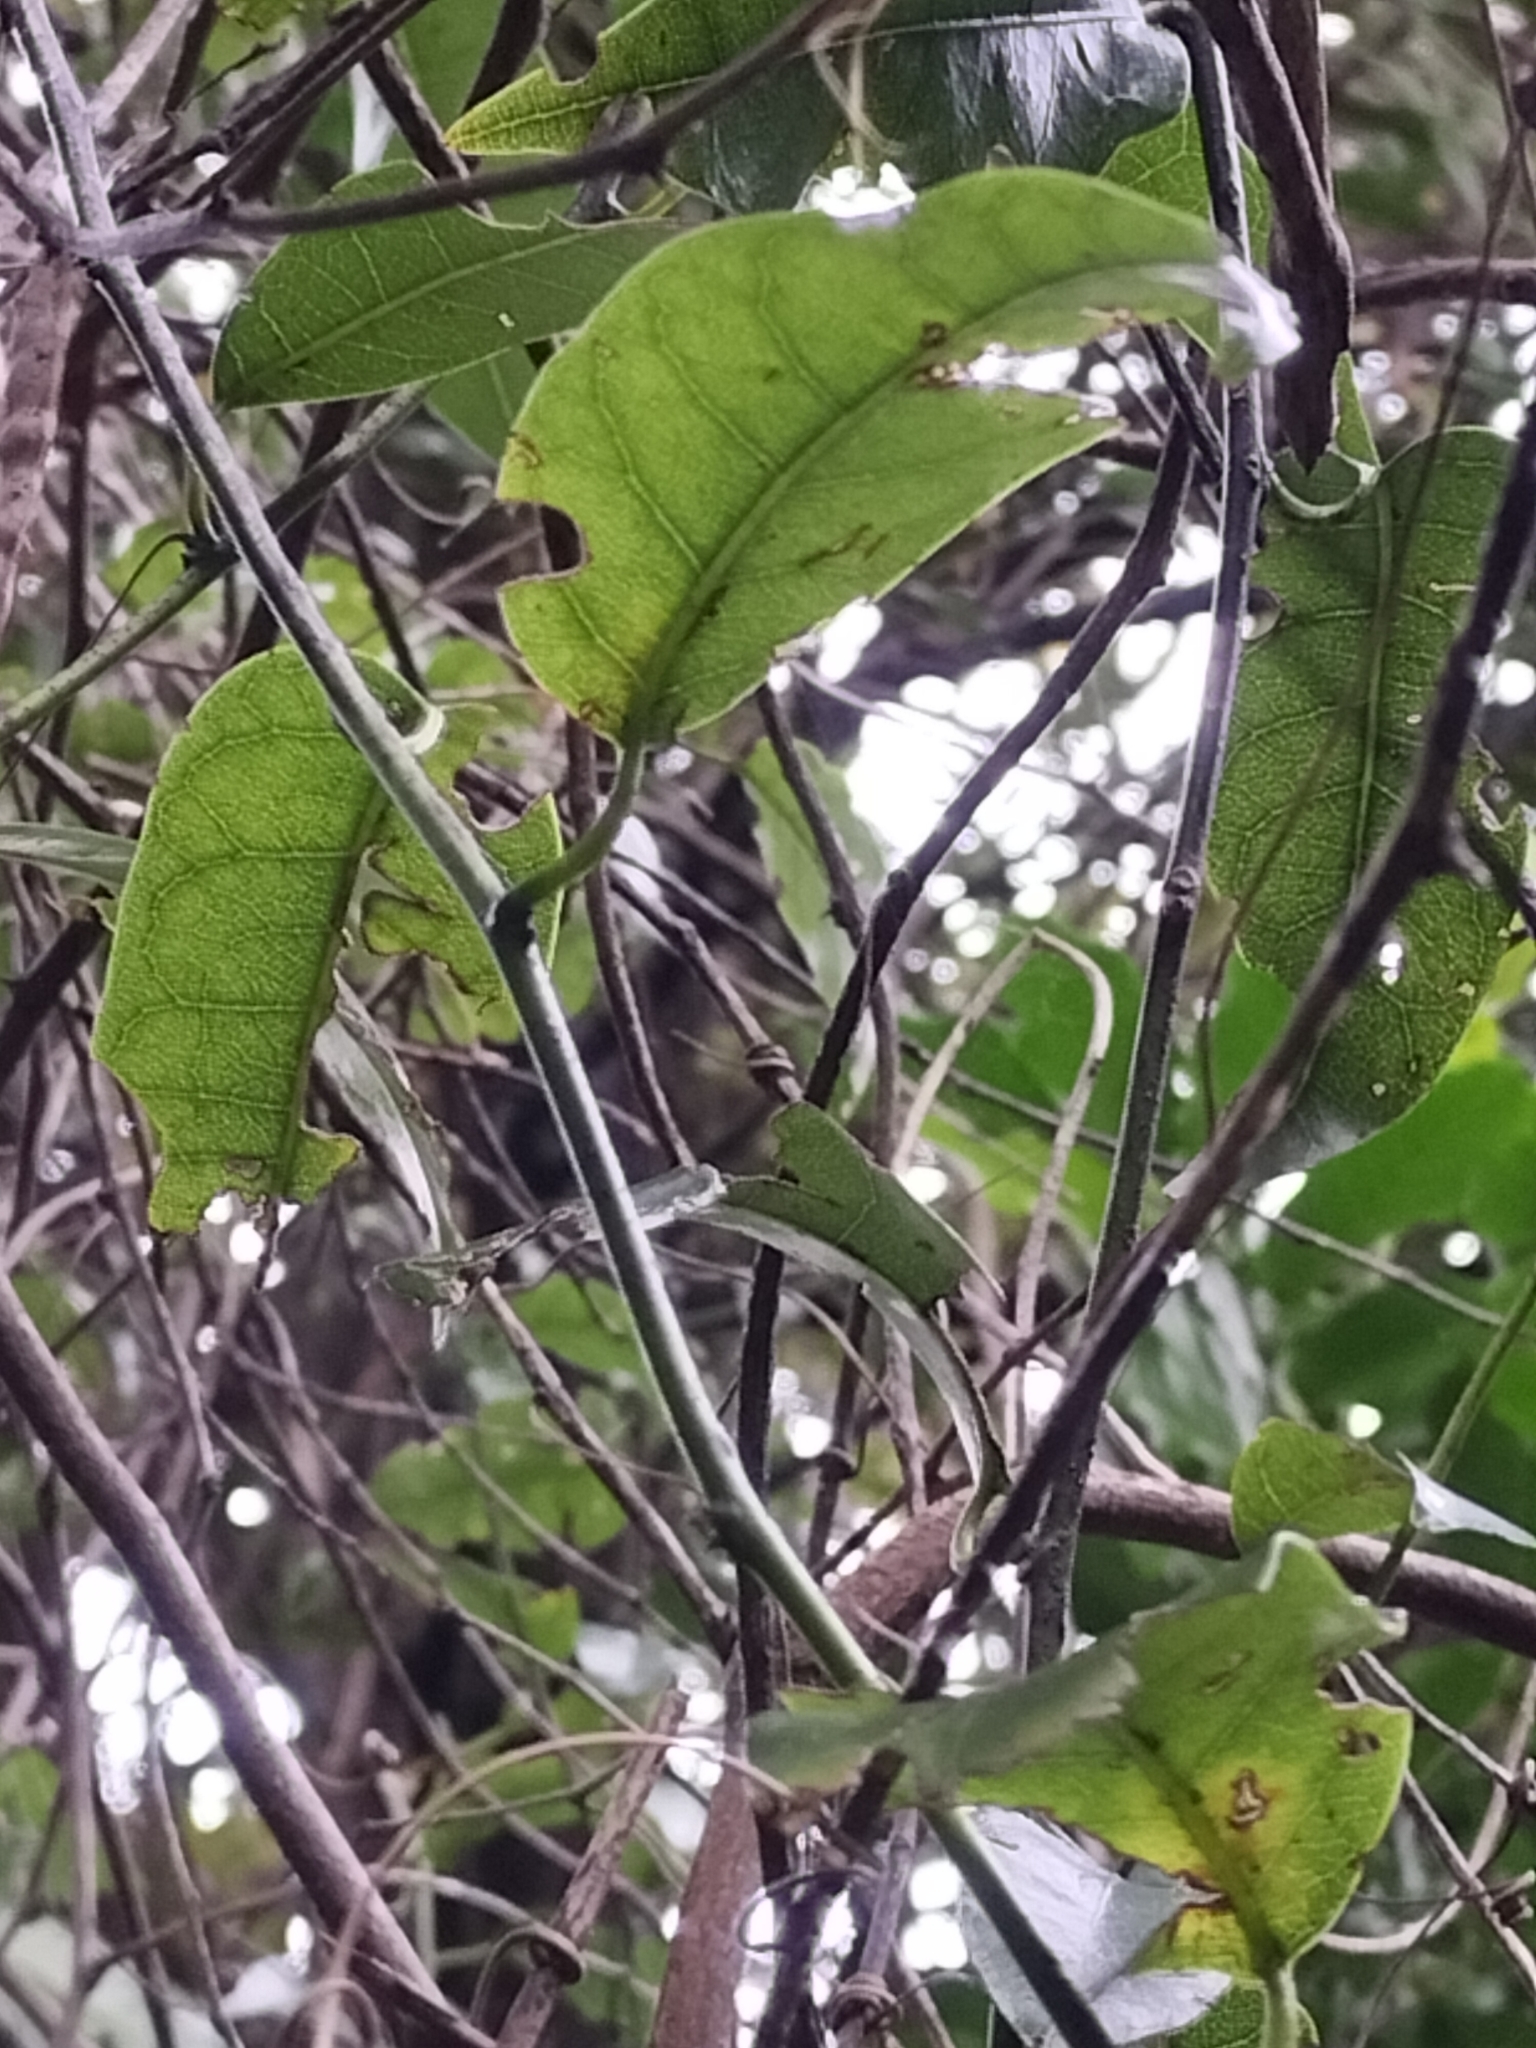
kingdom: Plantae
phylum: Tracheophyta
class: Magnoliopsida
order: Malpighiales
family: Passifloraceae
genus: Passiflora
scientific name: Passiflora tetrandra
